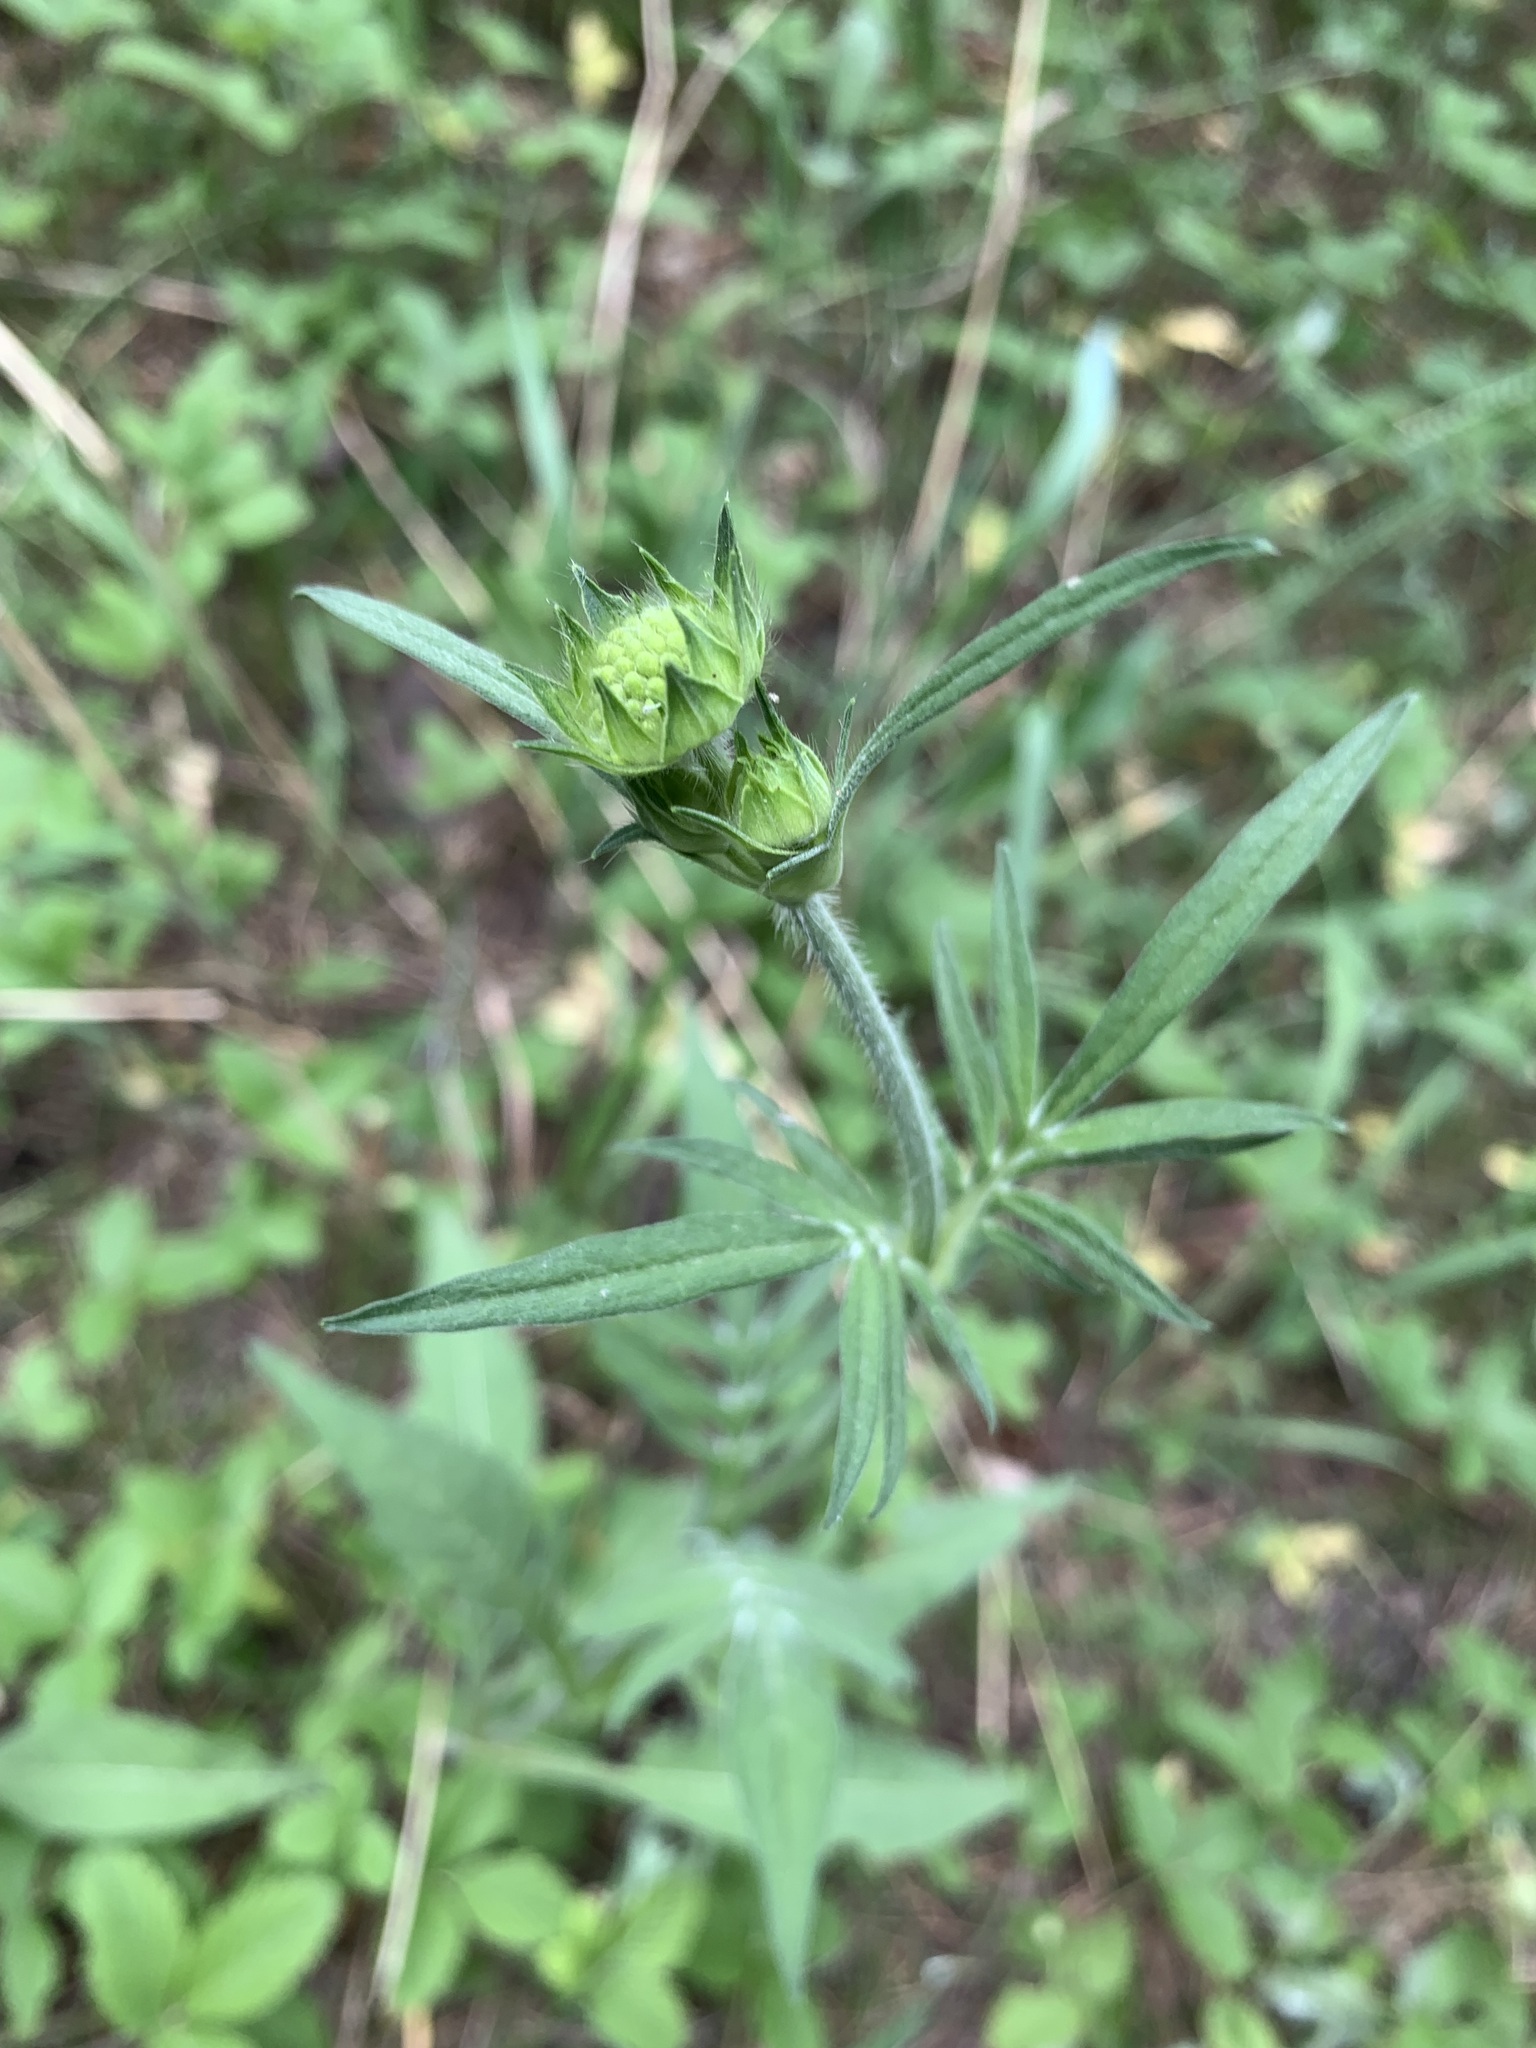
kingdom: Plantae
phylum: Tracheophyta
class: Magnoliopsida
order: Dipsacales
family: Caprifoliaceae
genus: Knautia
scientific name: Knautia arvensis
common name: Field scabiosa
